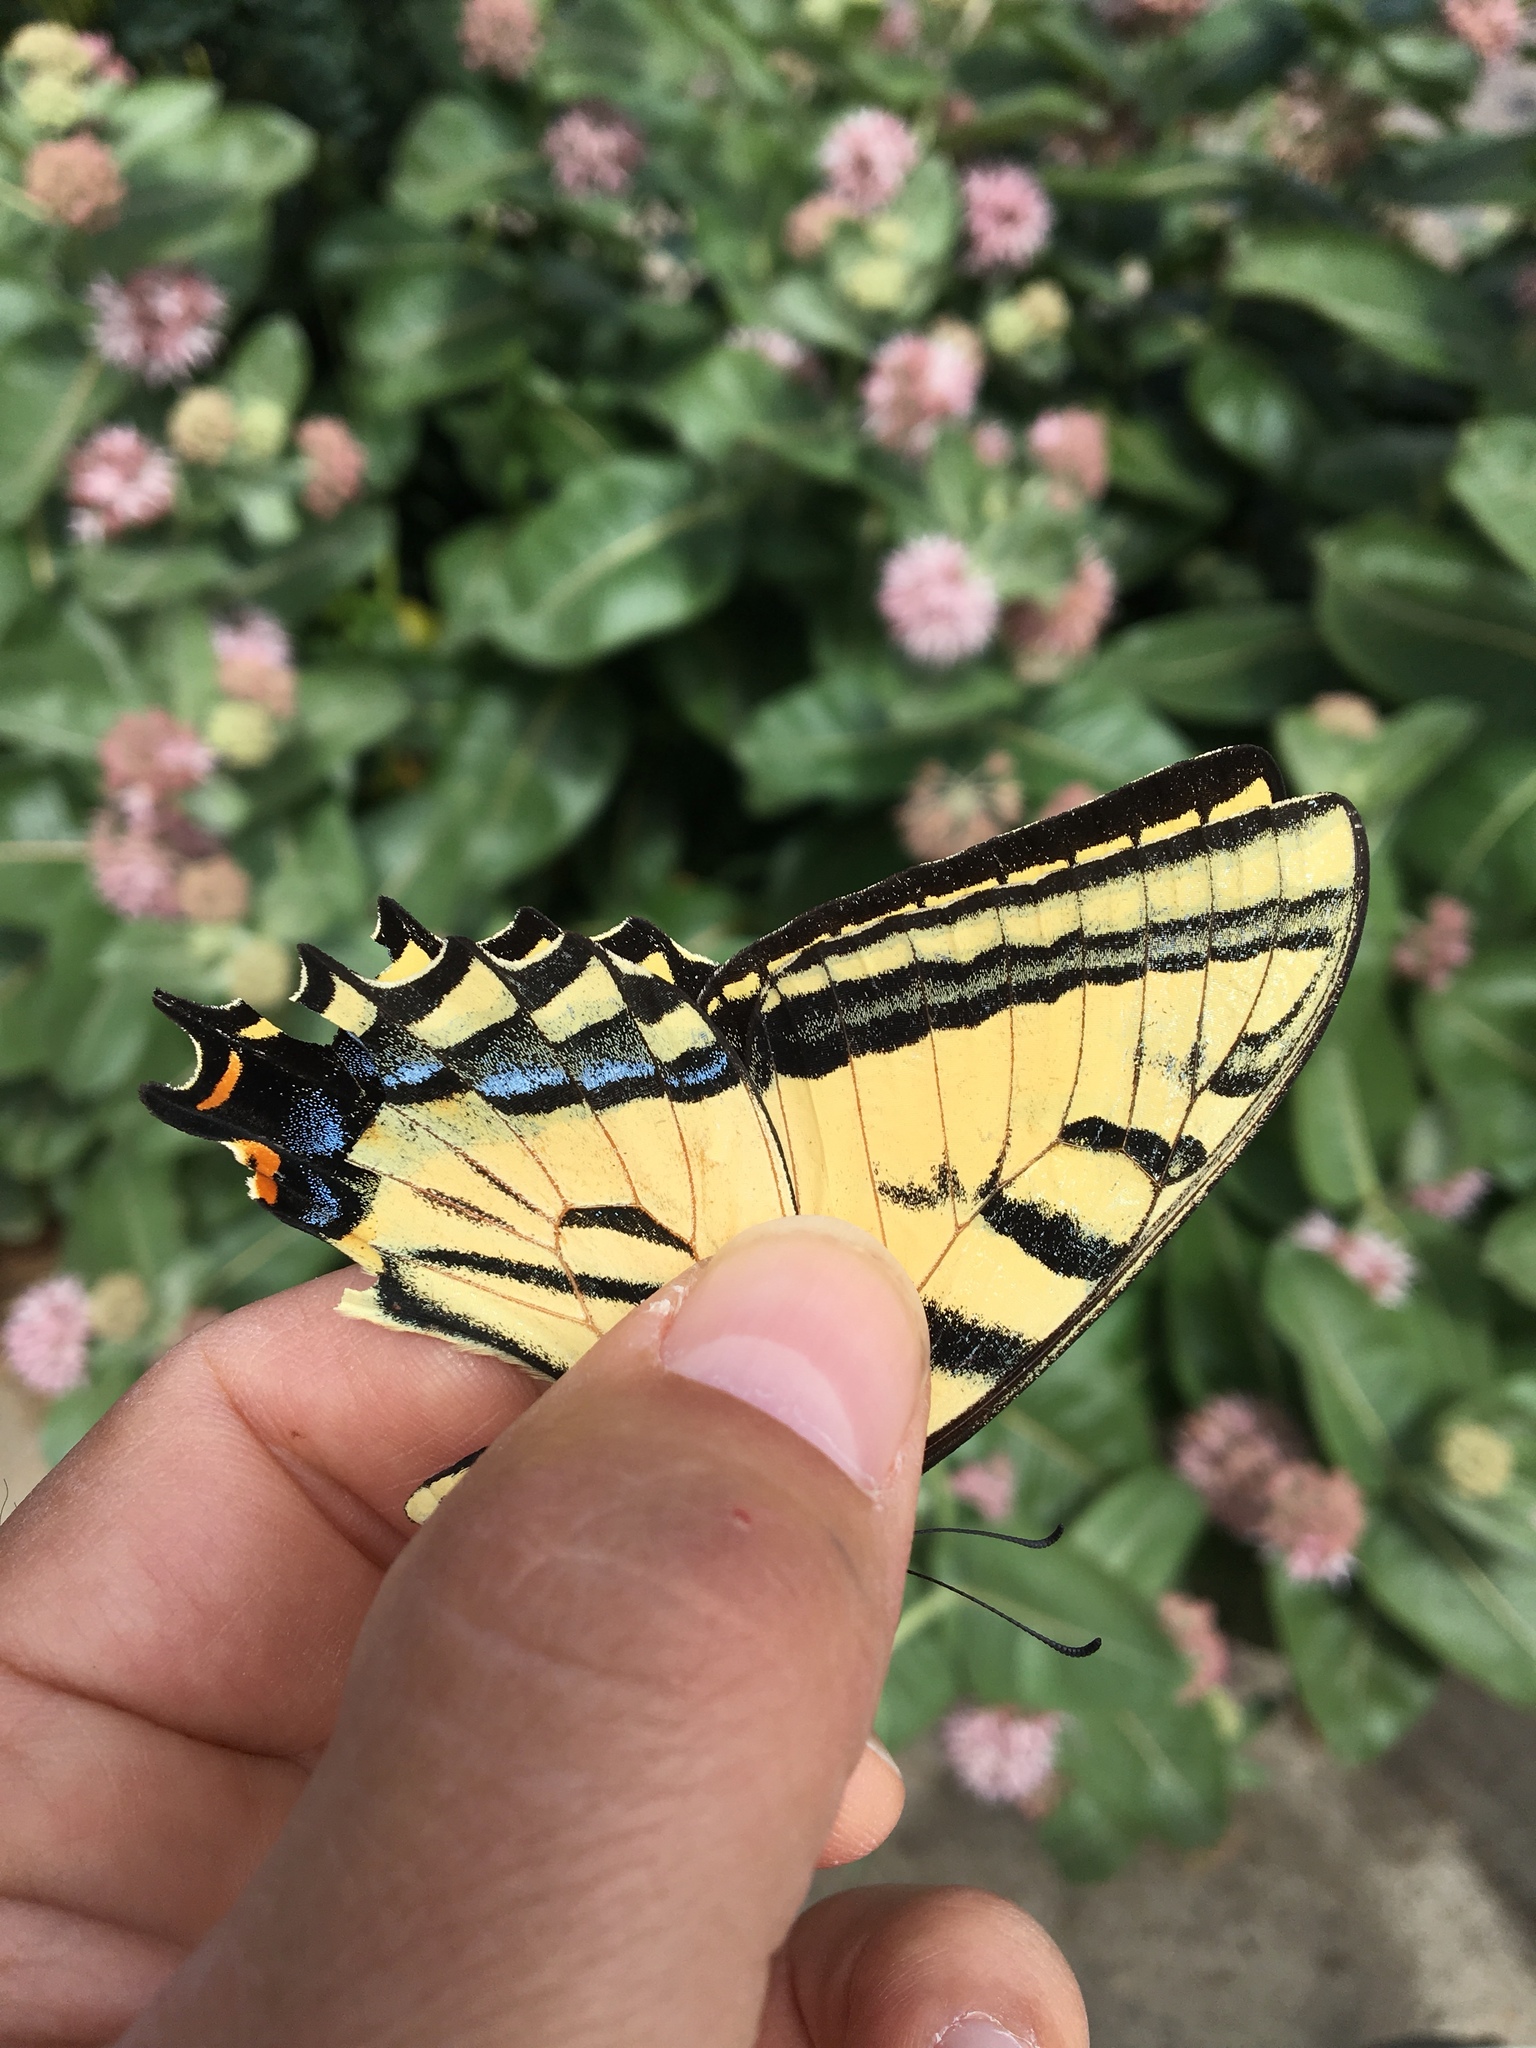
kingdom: Animalia
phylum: Arthropoda
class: Insecta
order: Lepidoptera
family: Papilionidae
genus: Papilio
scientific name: Papilio multicaudata
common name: Two-tailed tiger swallowtail
